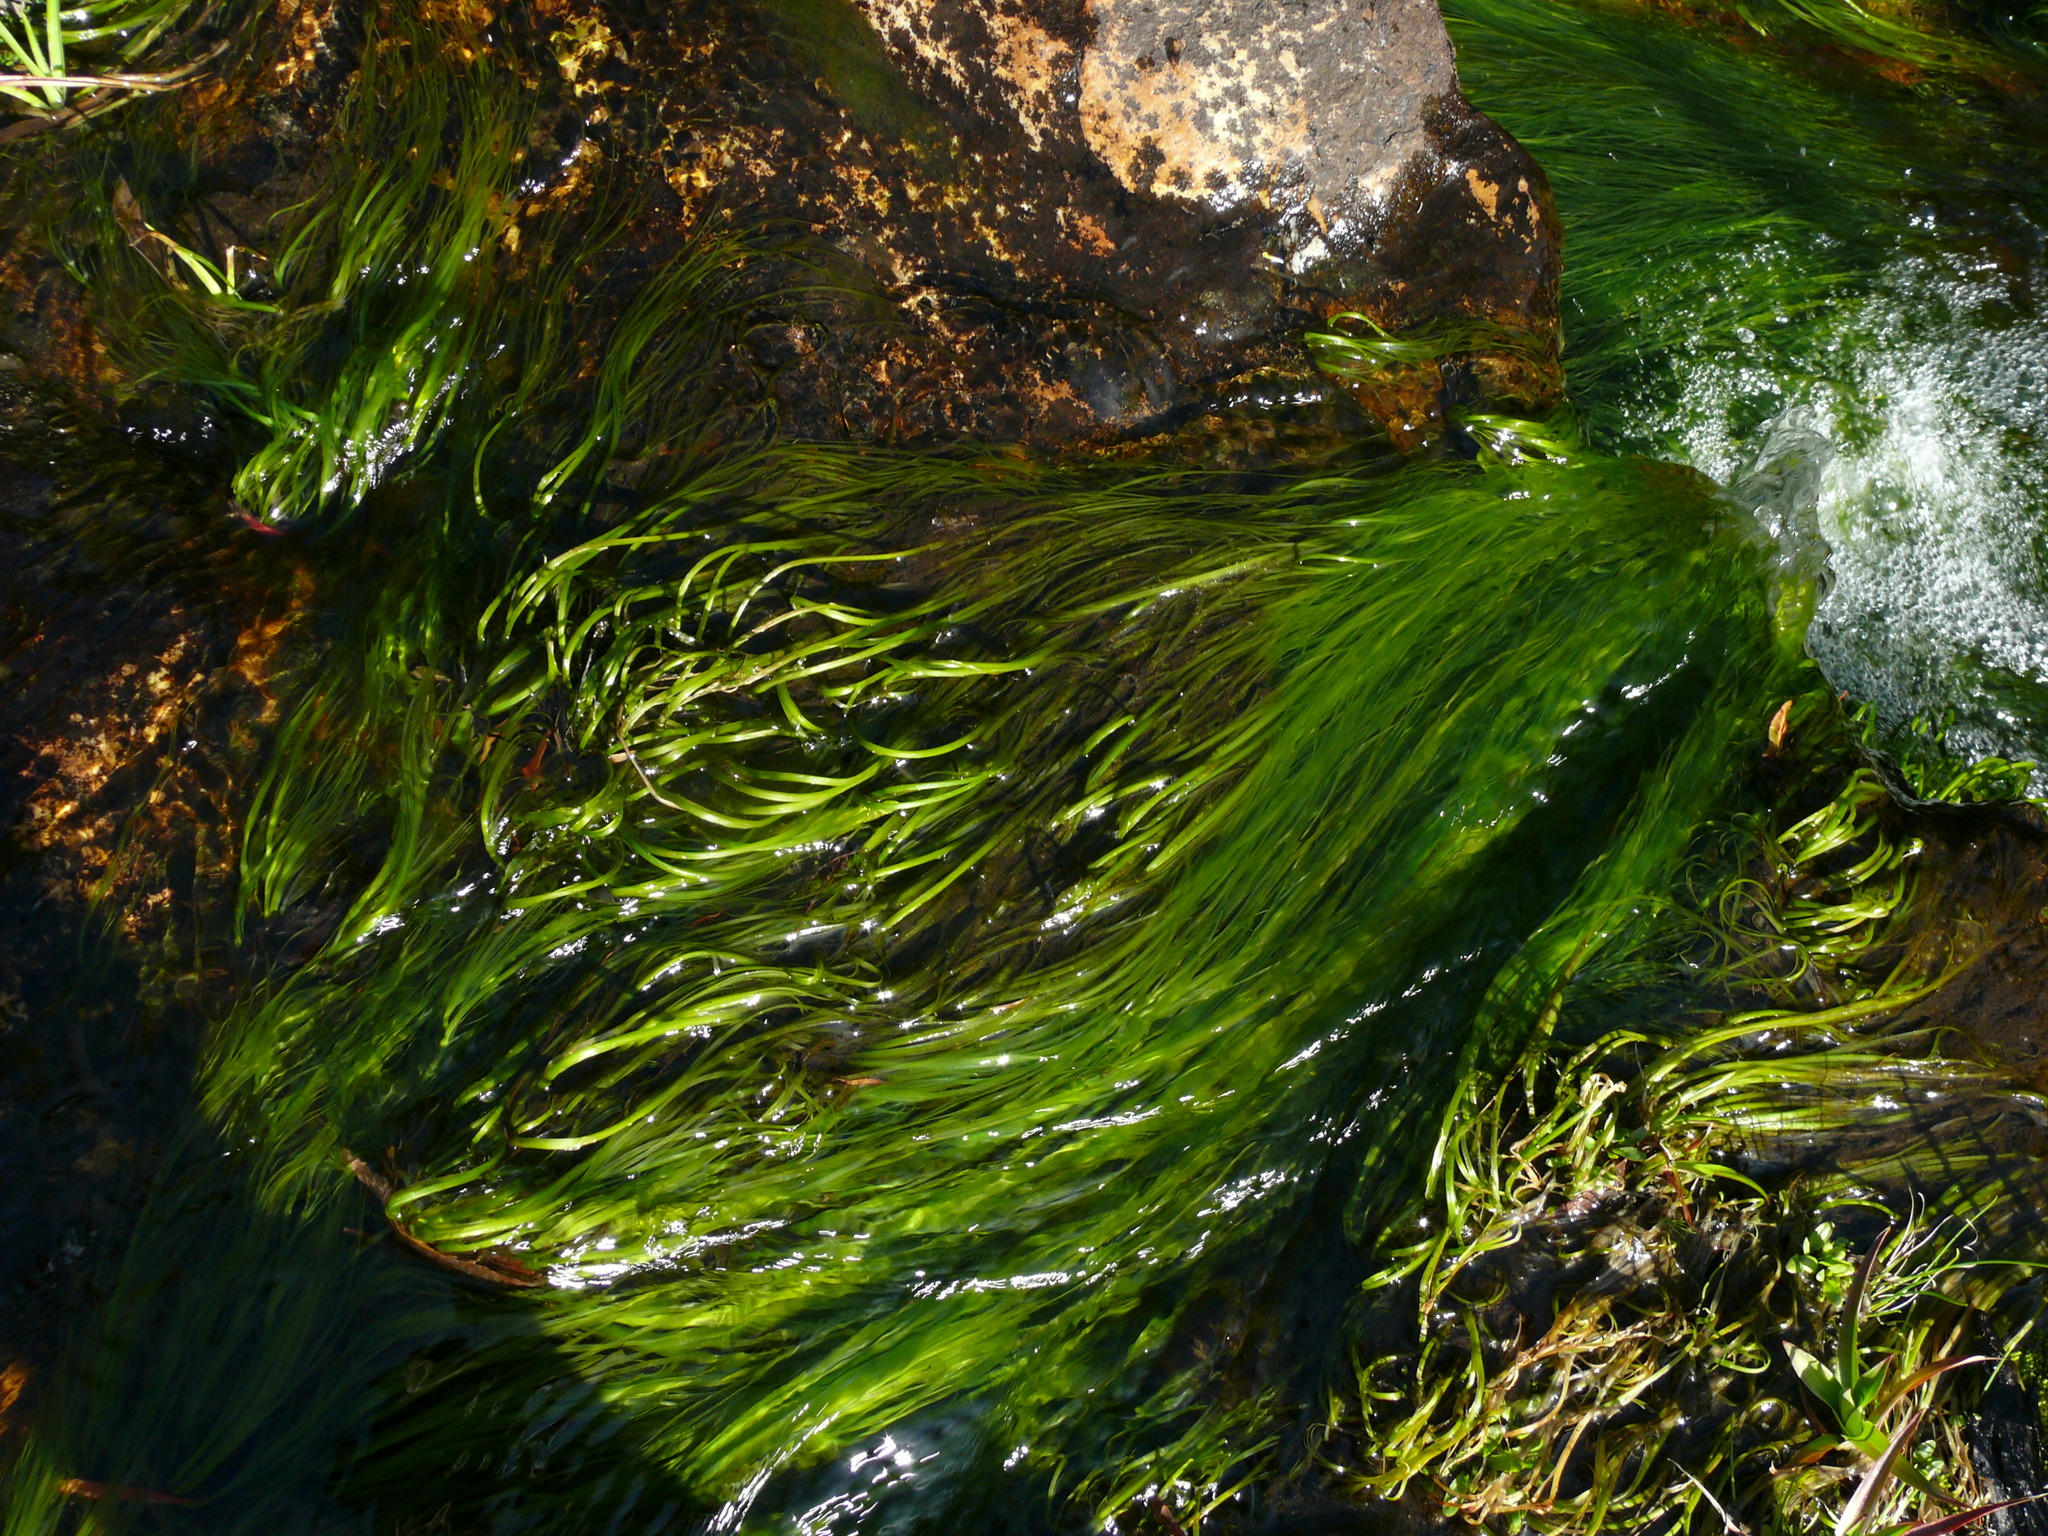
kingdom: Plantae
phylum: Tracheophyta
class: Liliopsida
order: Poales
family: Cyperaceae
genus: Isolepis
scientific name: Isolepis digitata
